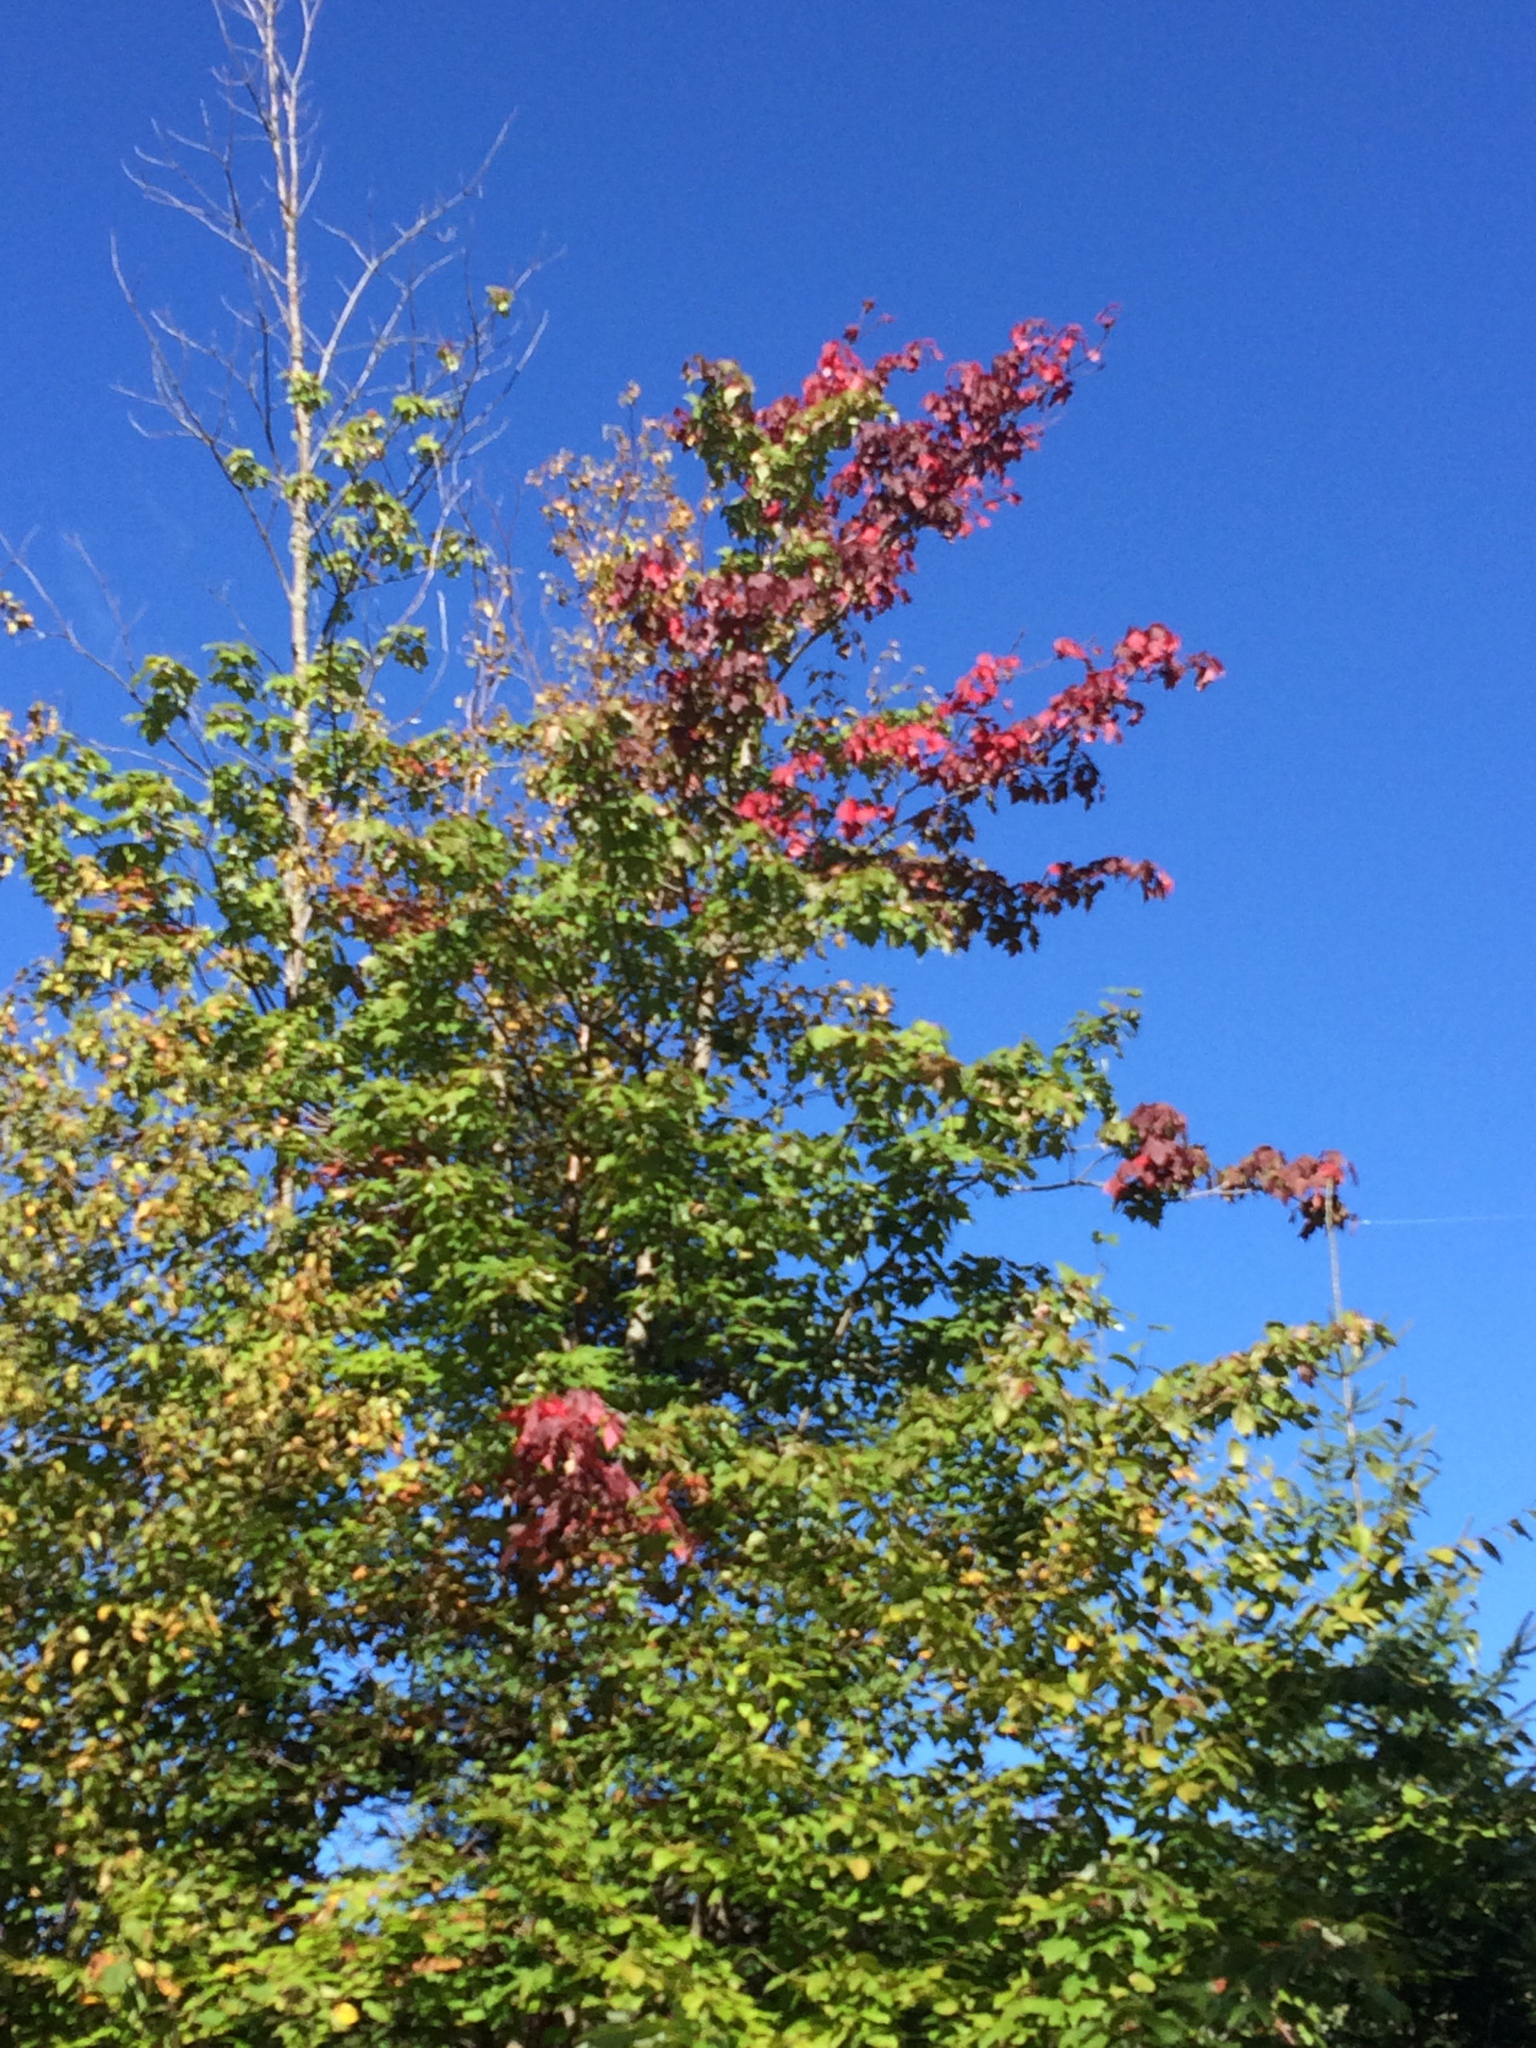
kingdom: Plantae
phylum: Tracheophyta
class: Magnoliopsida
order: Sapindales
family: Sapindaceae
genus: Acer
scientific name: Acer rubrum
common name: Red maple
